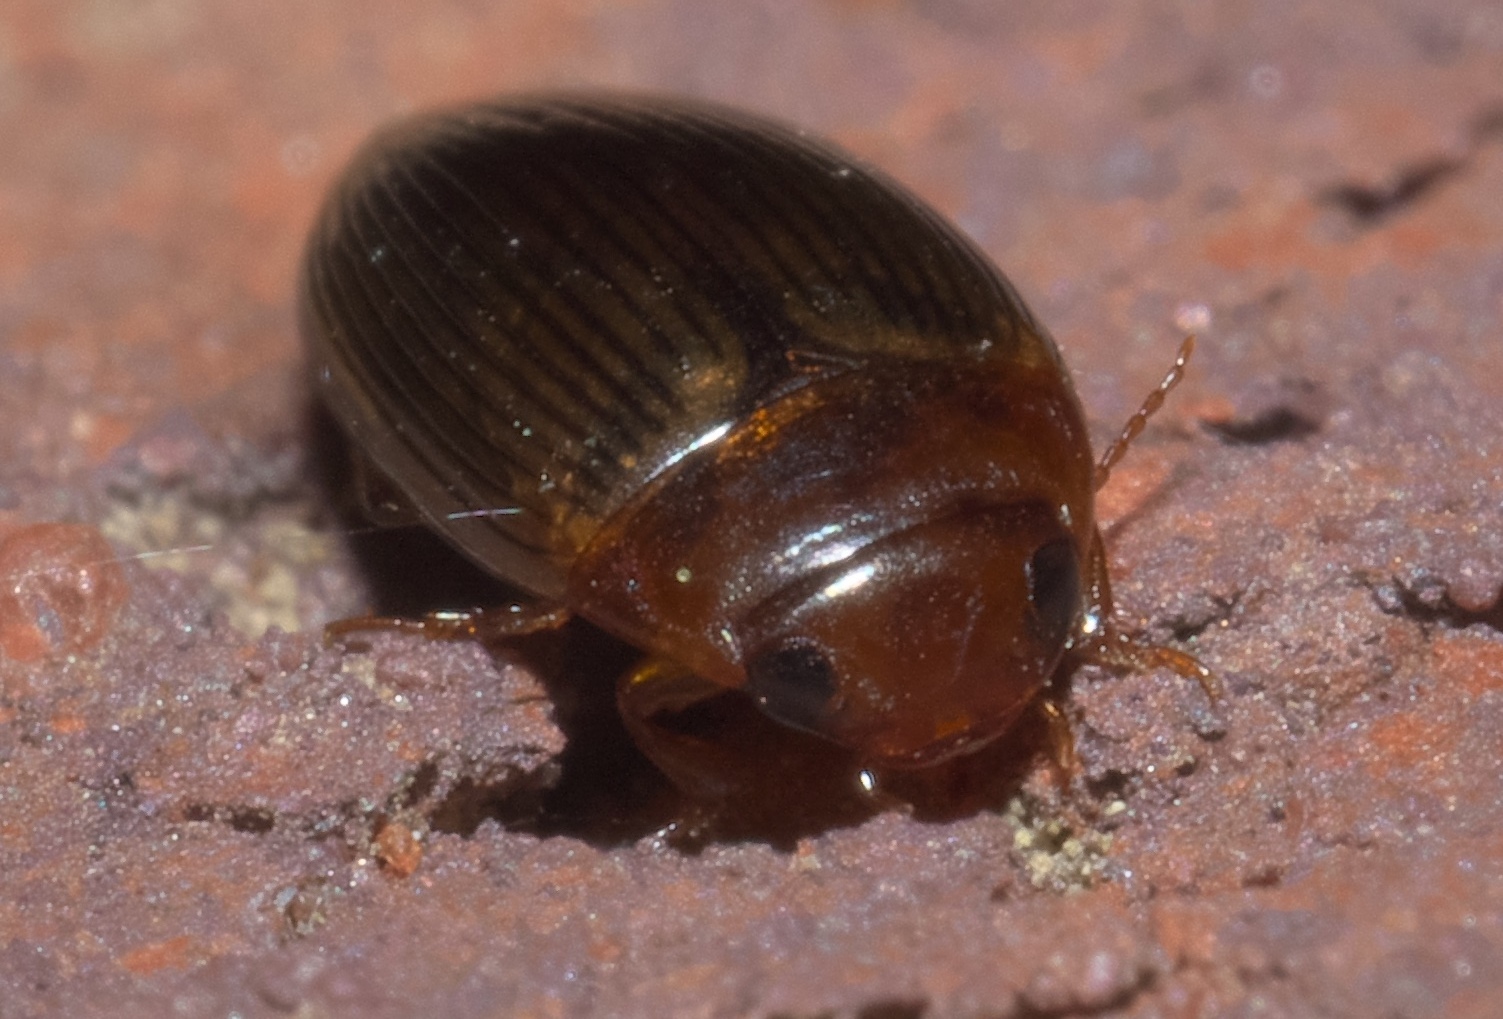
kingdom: Animalia
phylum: Arthropoda
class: Insecta
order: Coleoptera
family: Dytiscidae
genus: Copelatus
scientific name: Copelatus glyphicus
